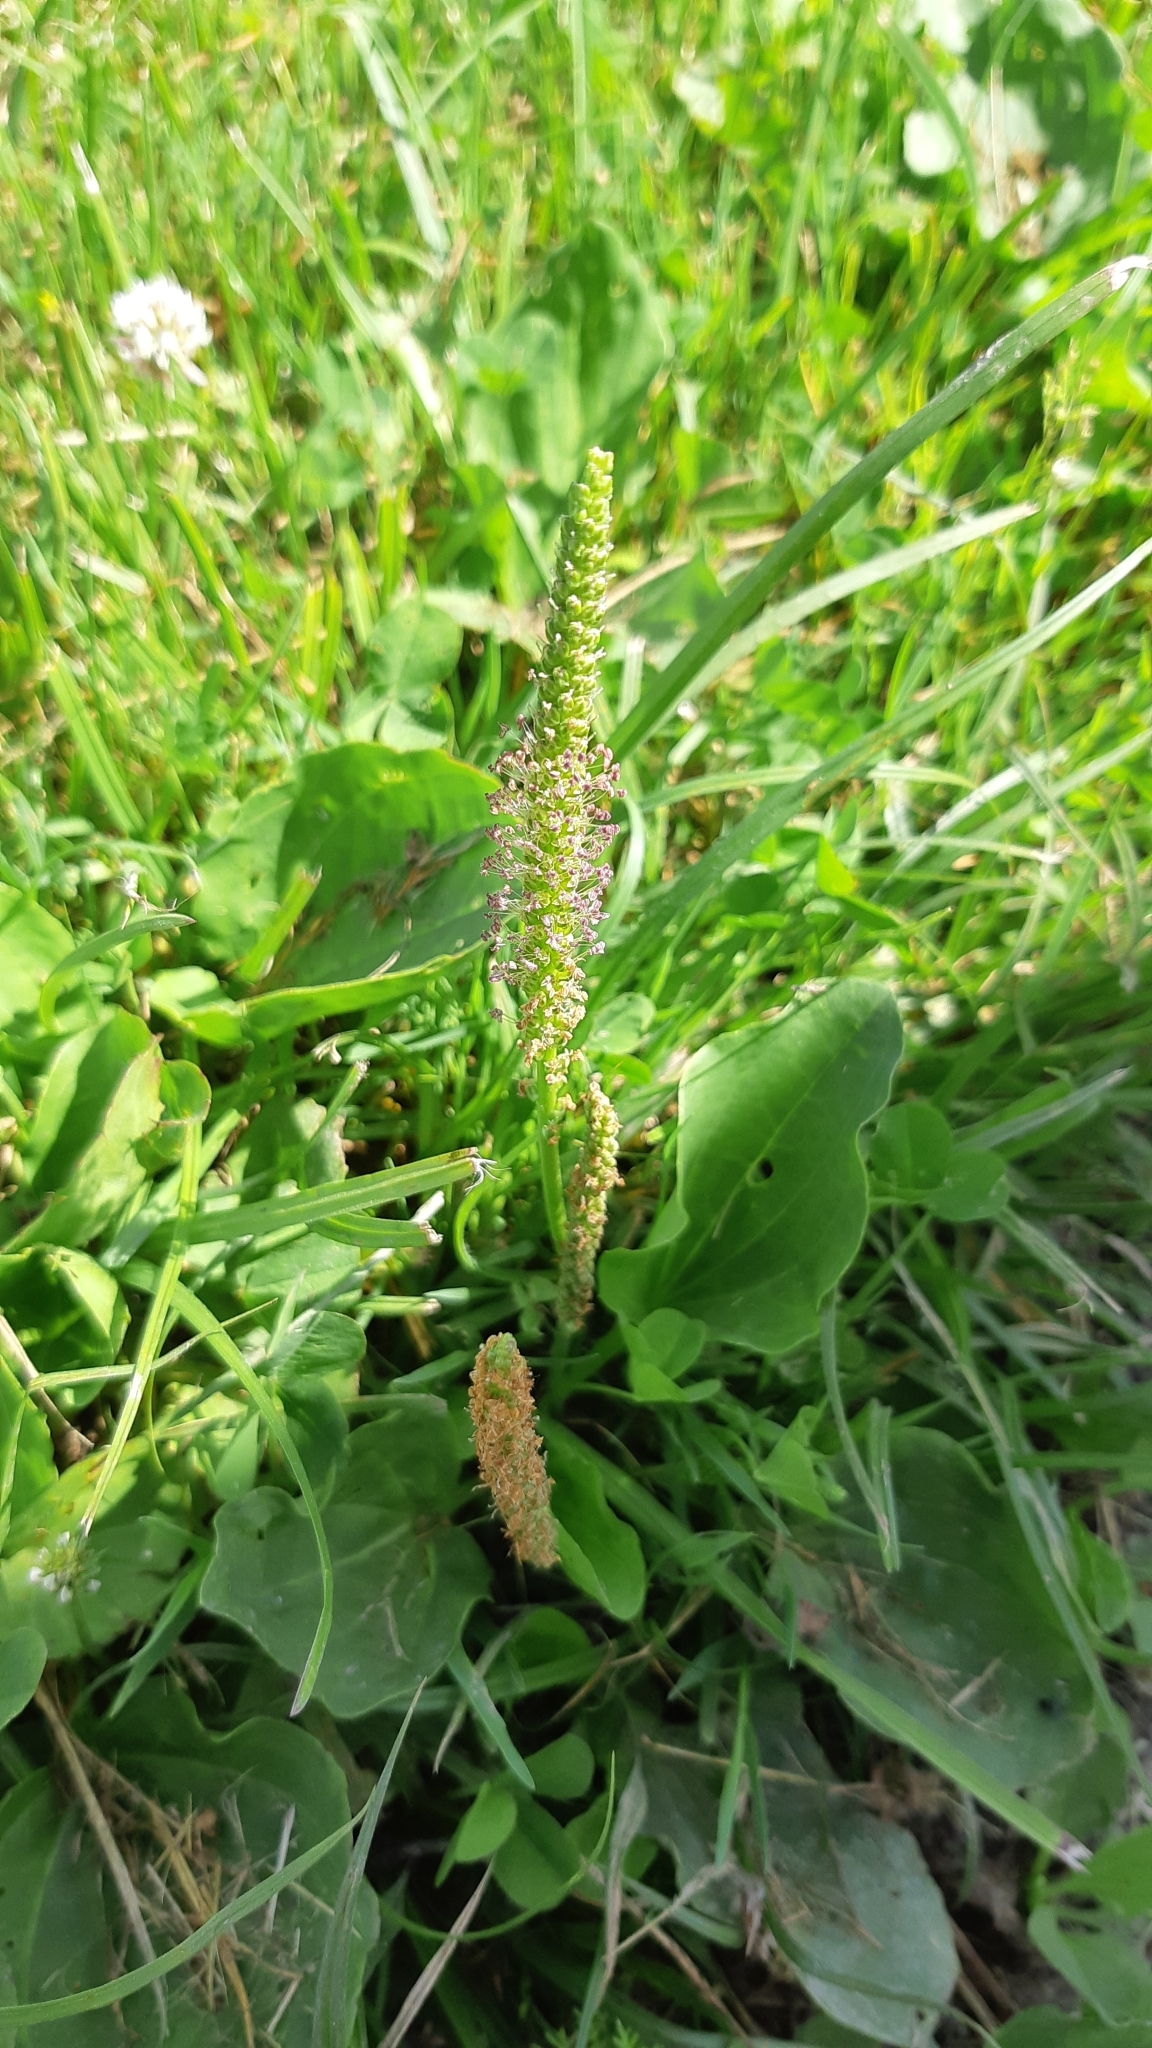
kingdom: Plantae
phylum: Tracheophyta
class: Magnoliopsida
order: Lamiales
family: Plantaginaceae
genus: Plantago
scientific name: Plantago major
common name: Common plantain
